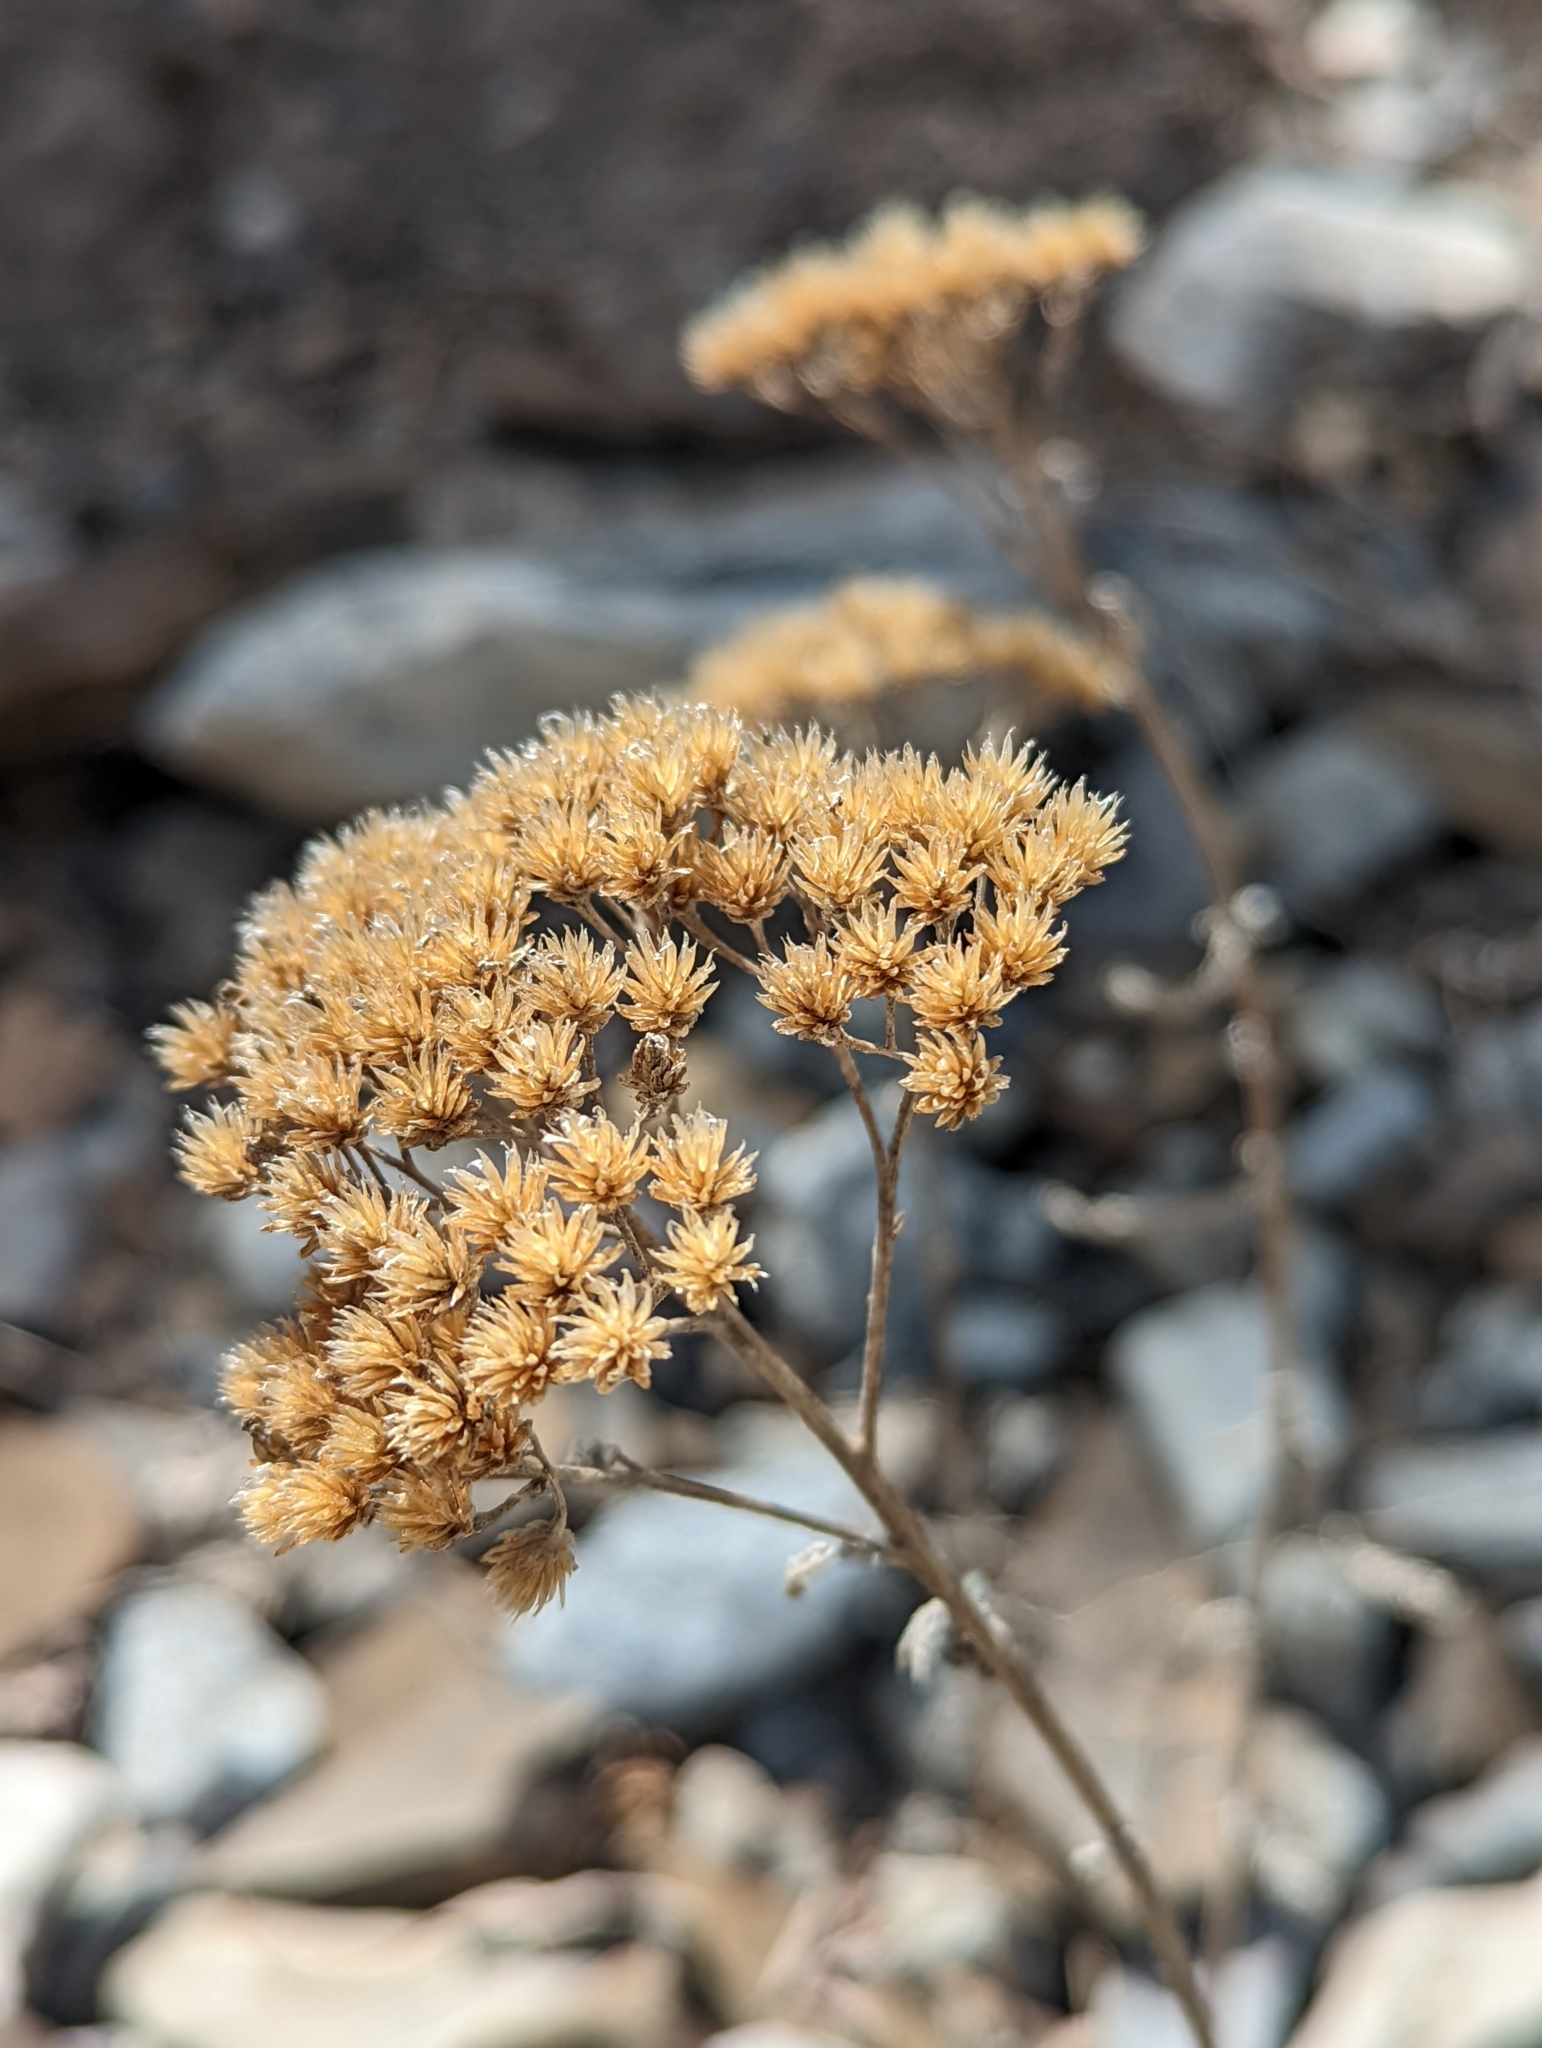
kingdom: Plantae
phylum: Tracheophyta
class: Magnoliopsida
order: Asterales
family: Asteraceae
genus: Achillea
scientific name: Achillea millefolium
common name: Yarrow
